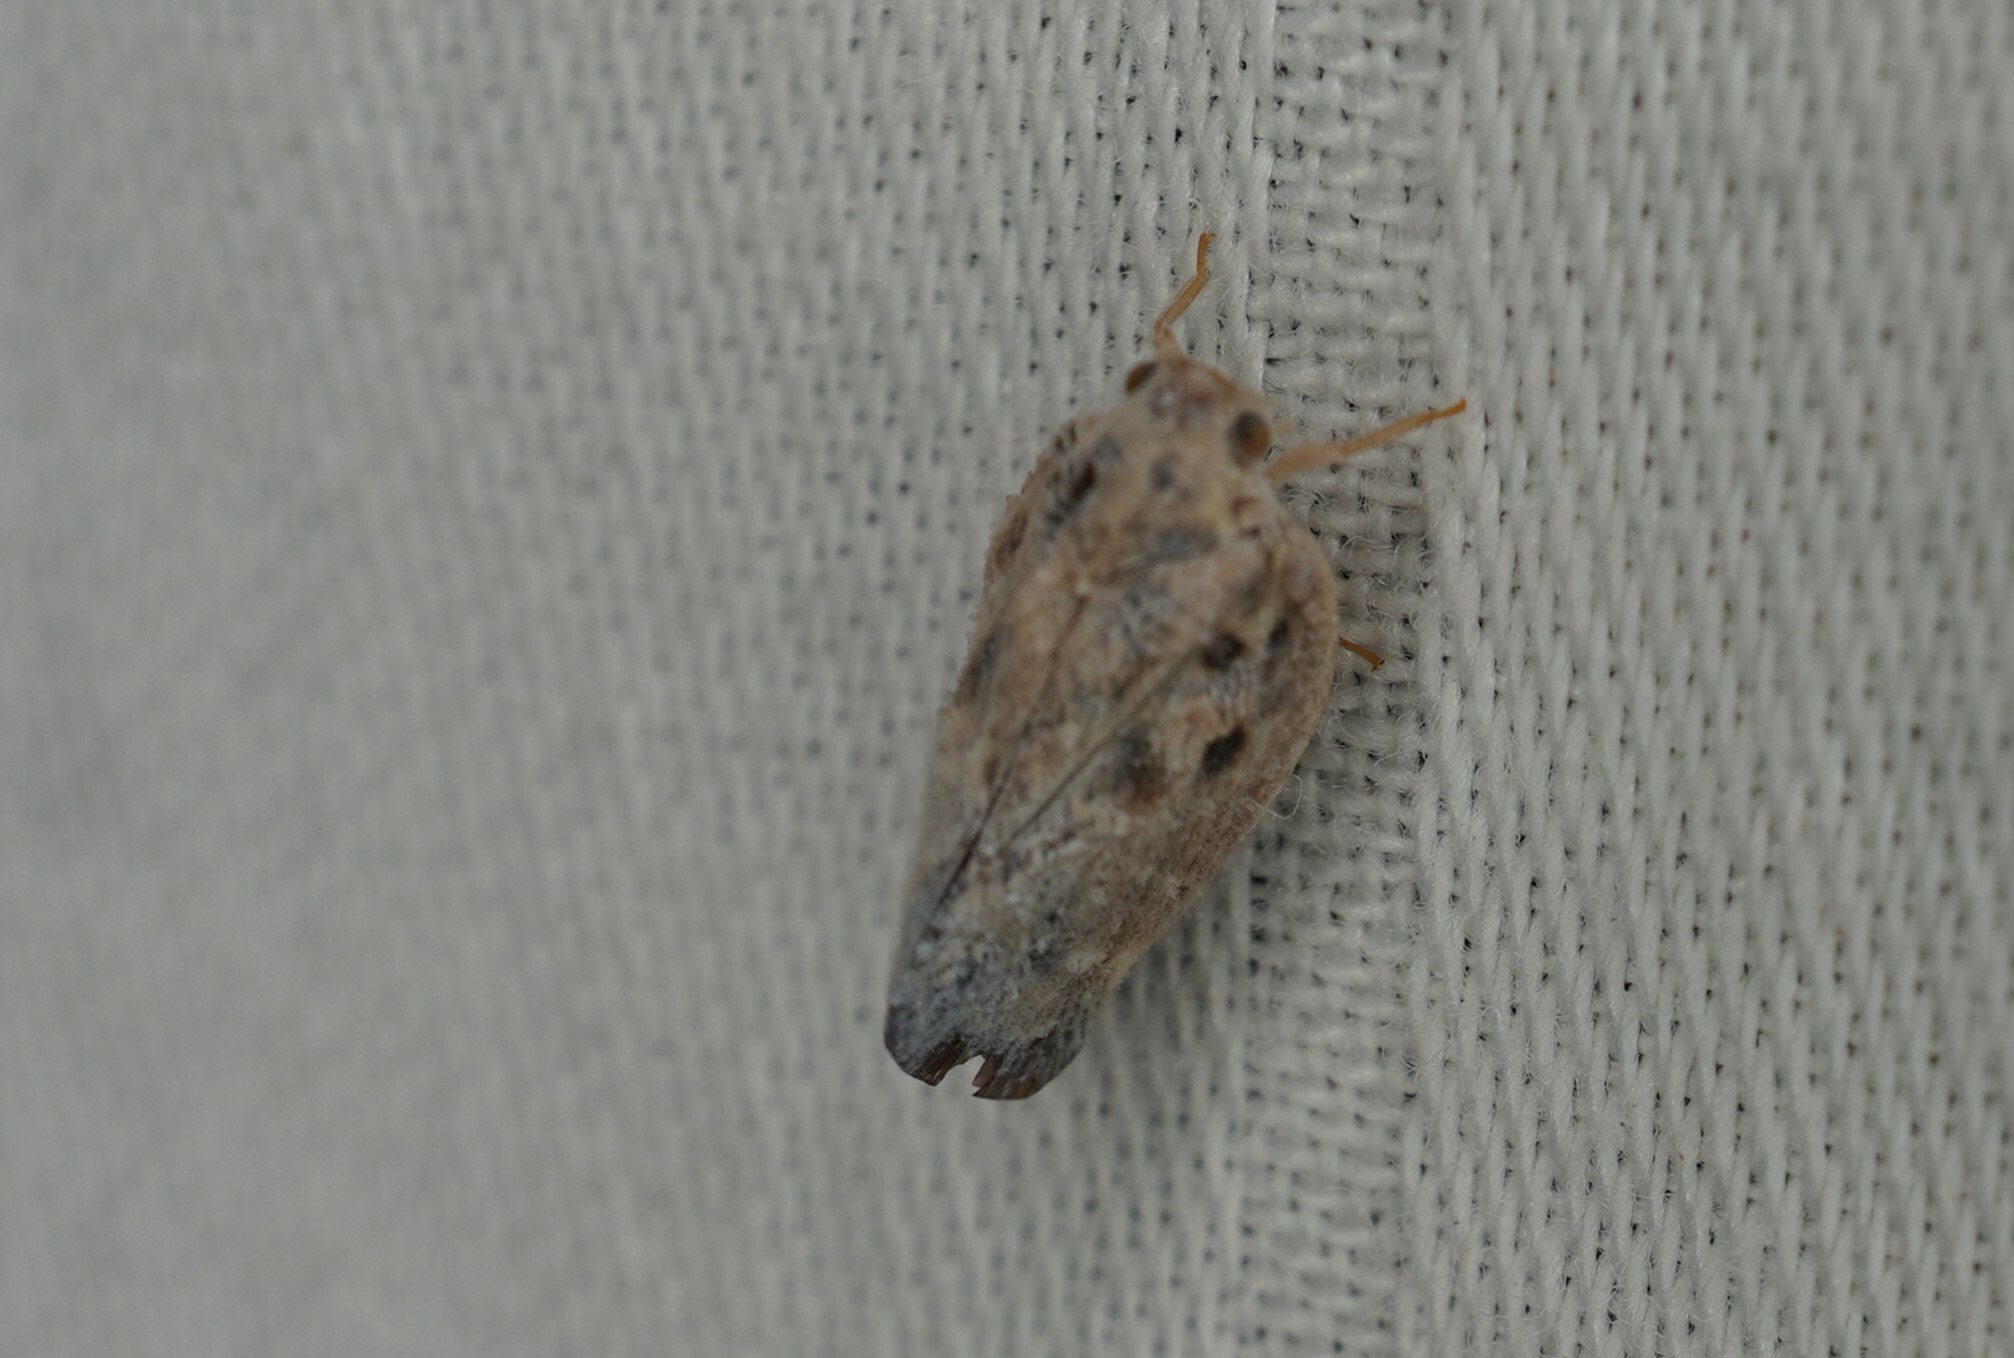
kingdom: Animalia
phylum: Arthropoda
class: Insecta
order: Hemiptera
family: Flatidae
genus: Metcalfa
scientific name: Metcalfa pruinosa
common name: Citrus flatid planthopper
